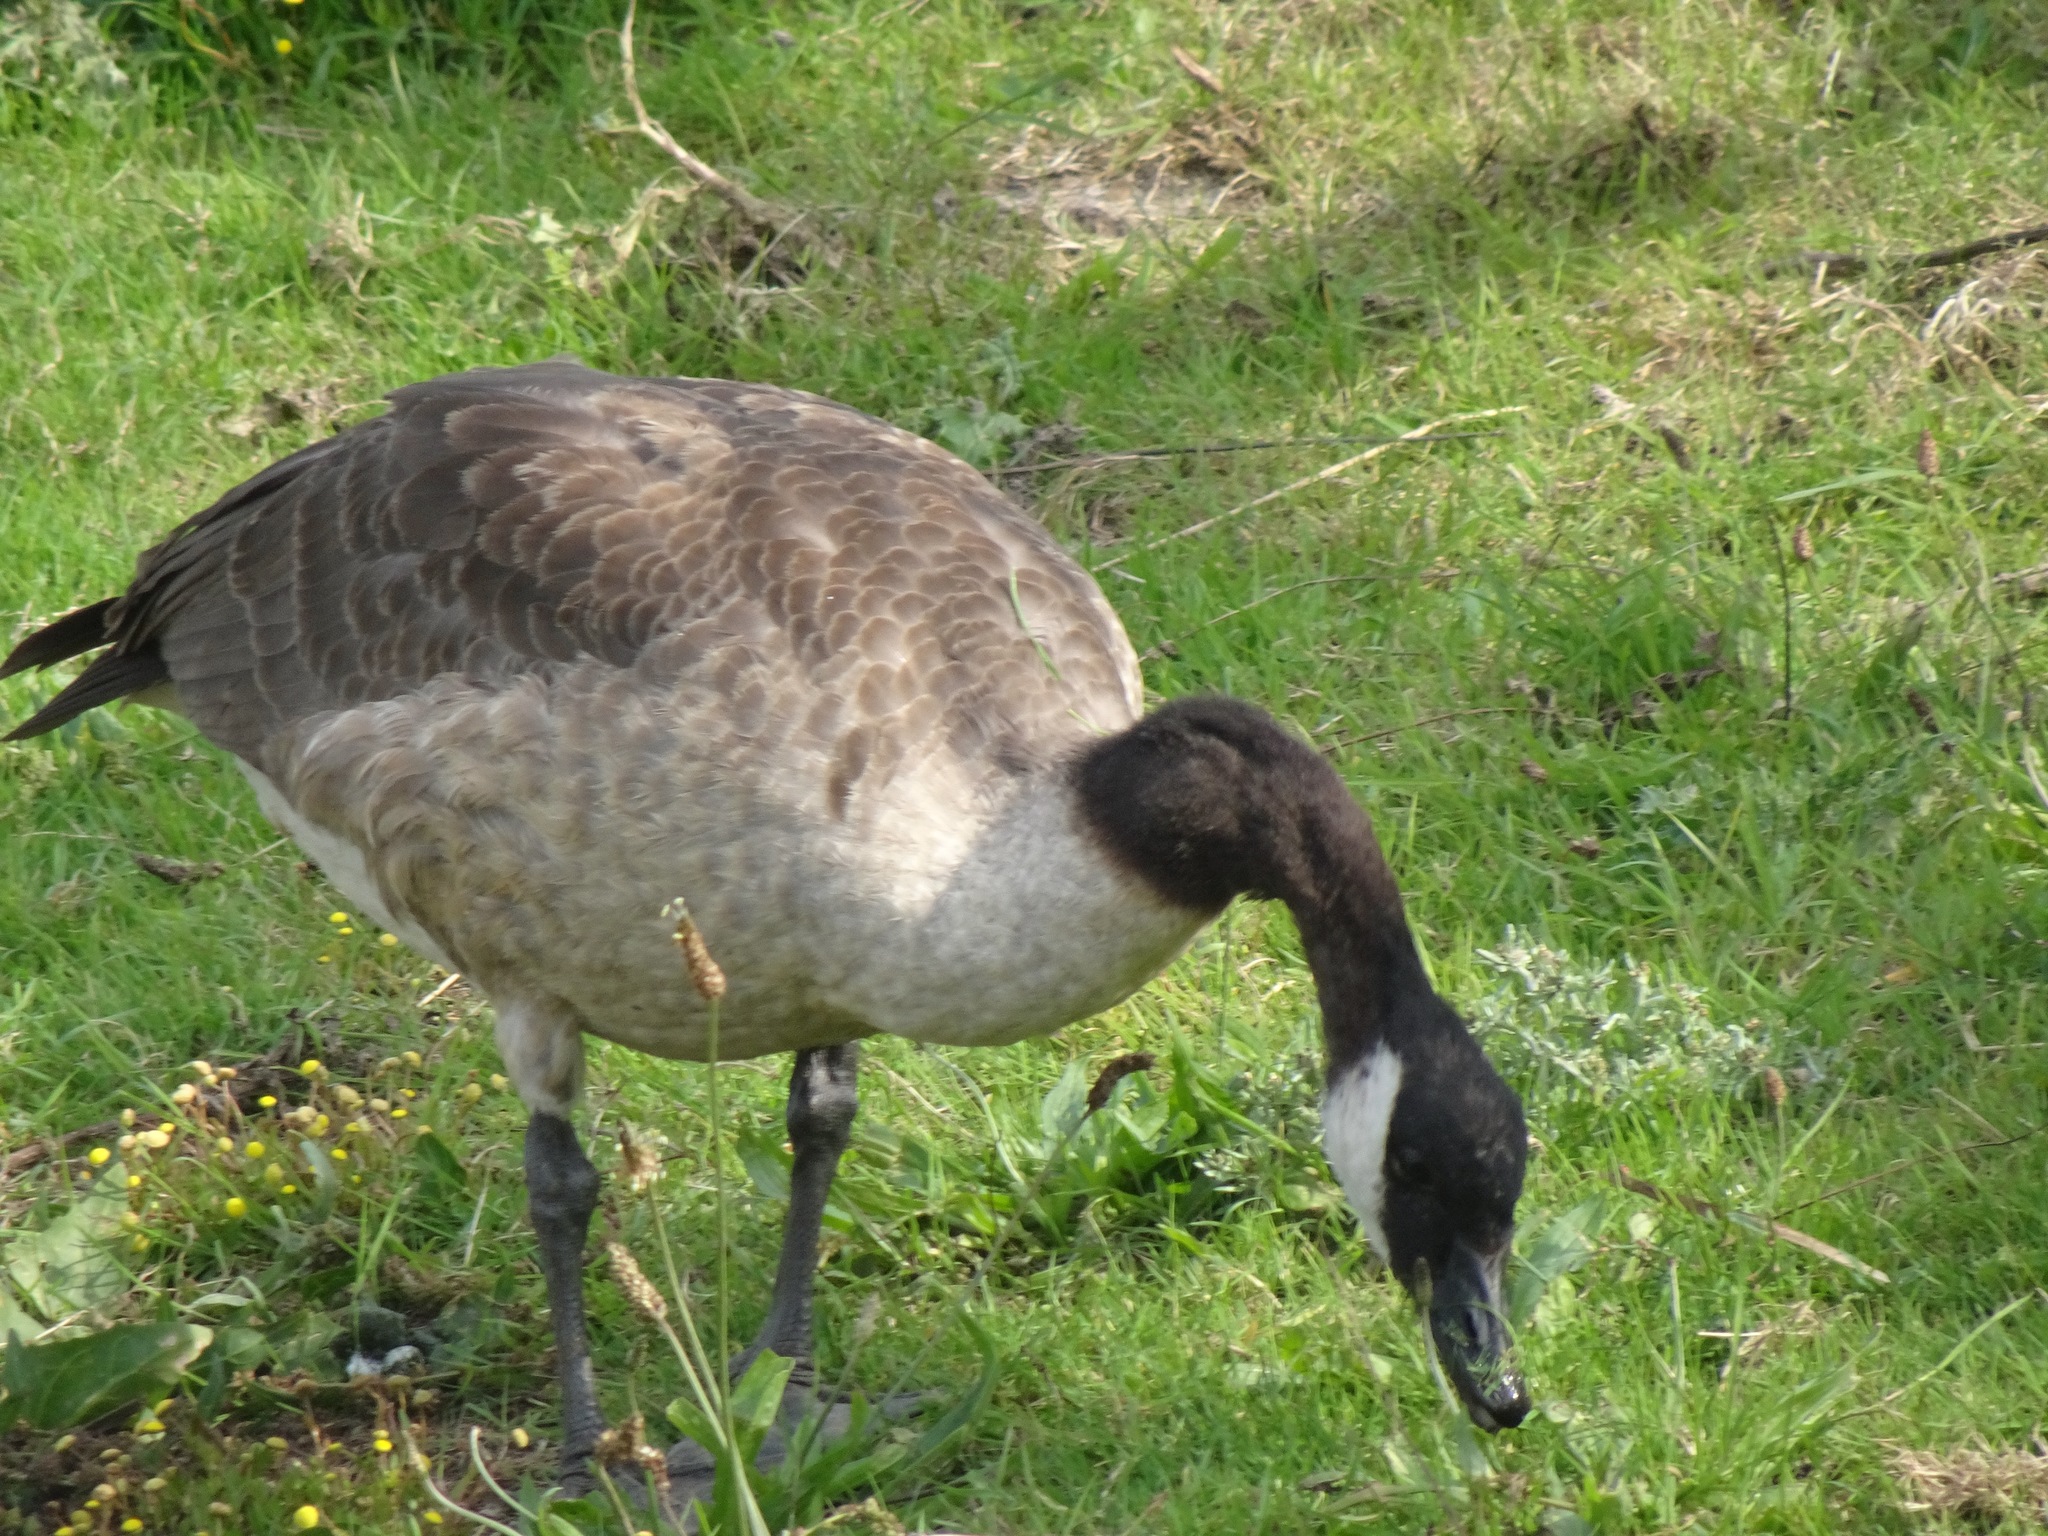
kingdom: Animalia
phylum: Chordata
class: Aves
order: Anseriformes
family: Anatidae
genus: Branta
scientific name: Branta canadensis
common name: Canada goose
